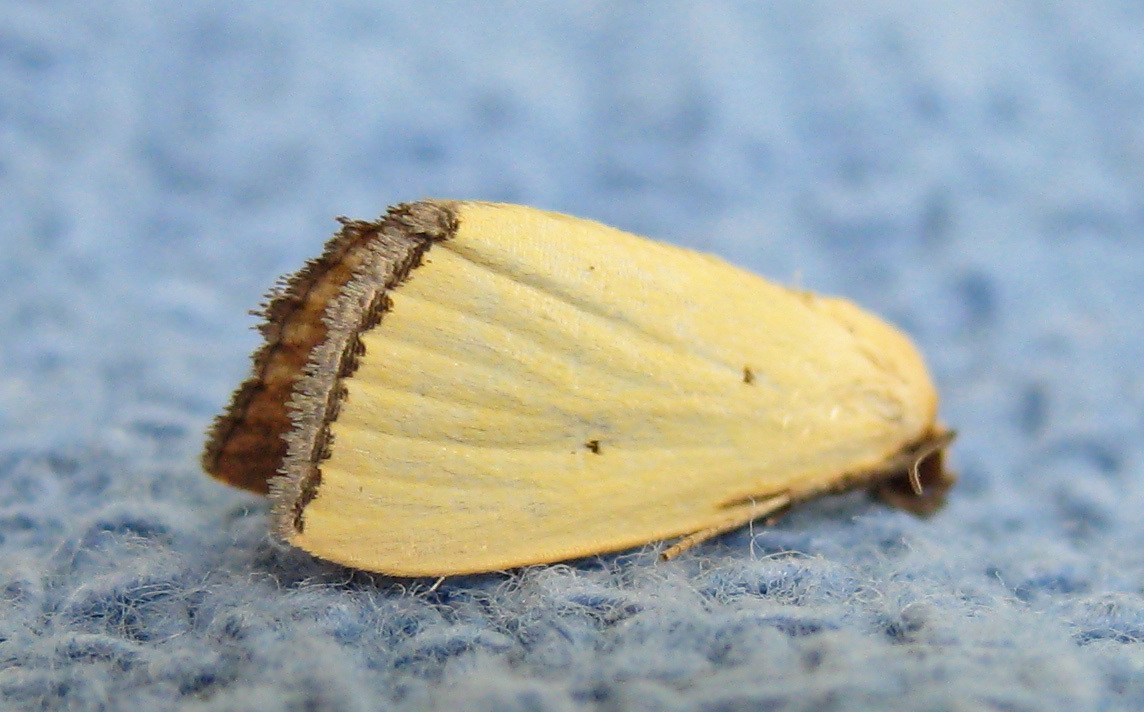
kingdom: Animalia
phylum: Arthropoda
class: Insecta
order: Lepidoptera
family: Noctuidae
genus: Marimatha
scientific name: Marimatha nigrofimbria
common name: Black-bordered lemon moth
